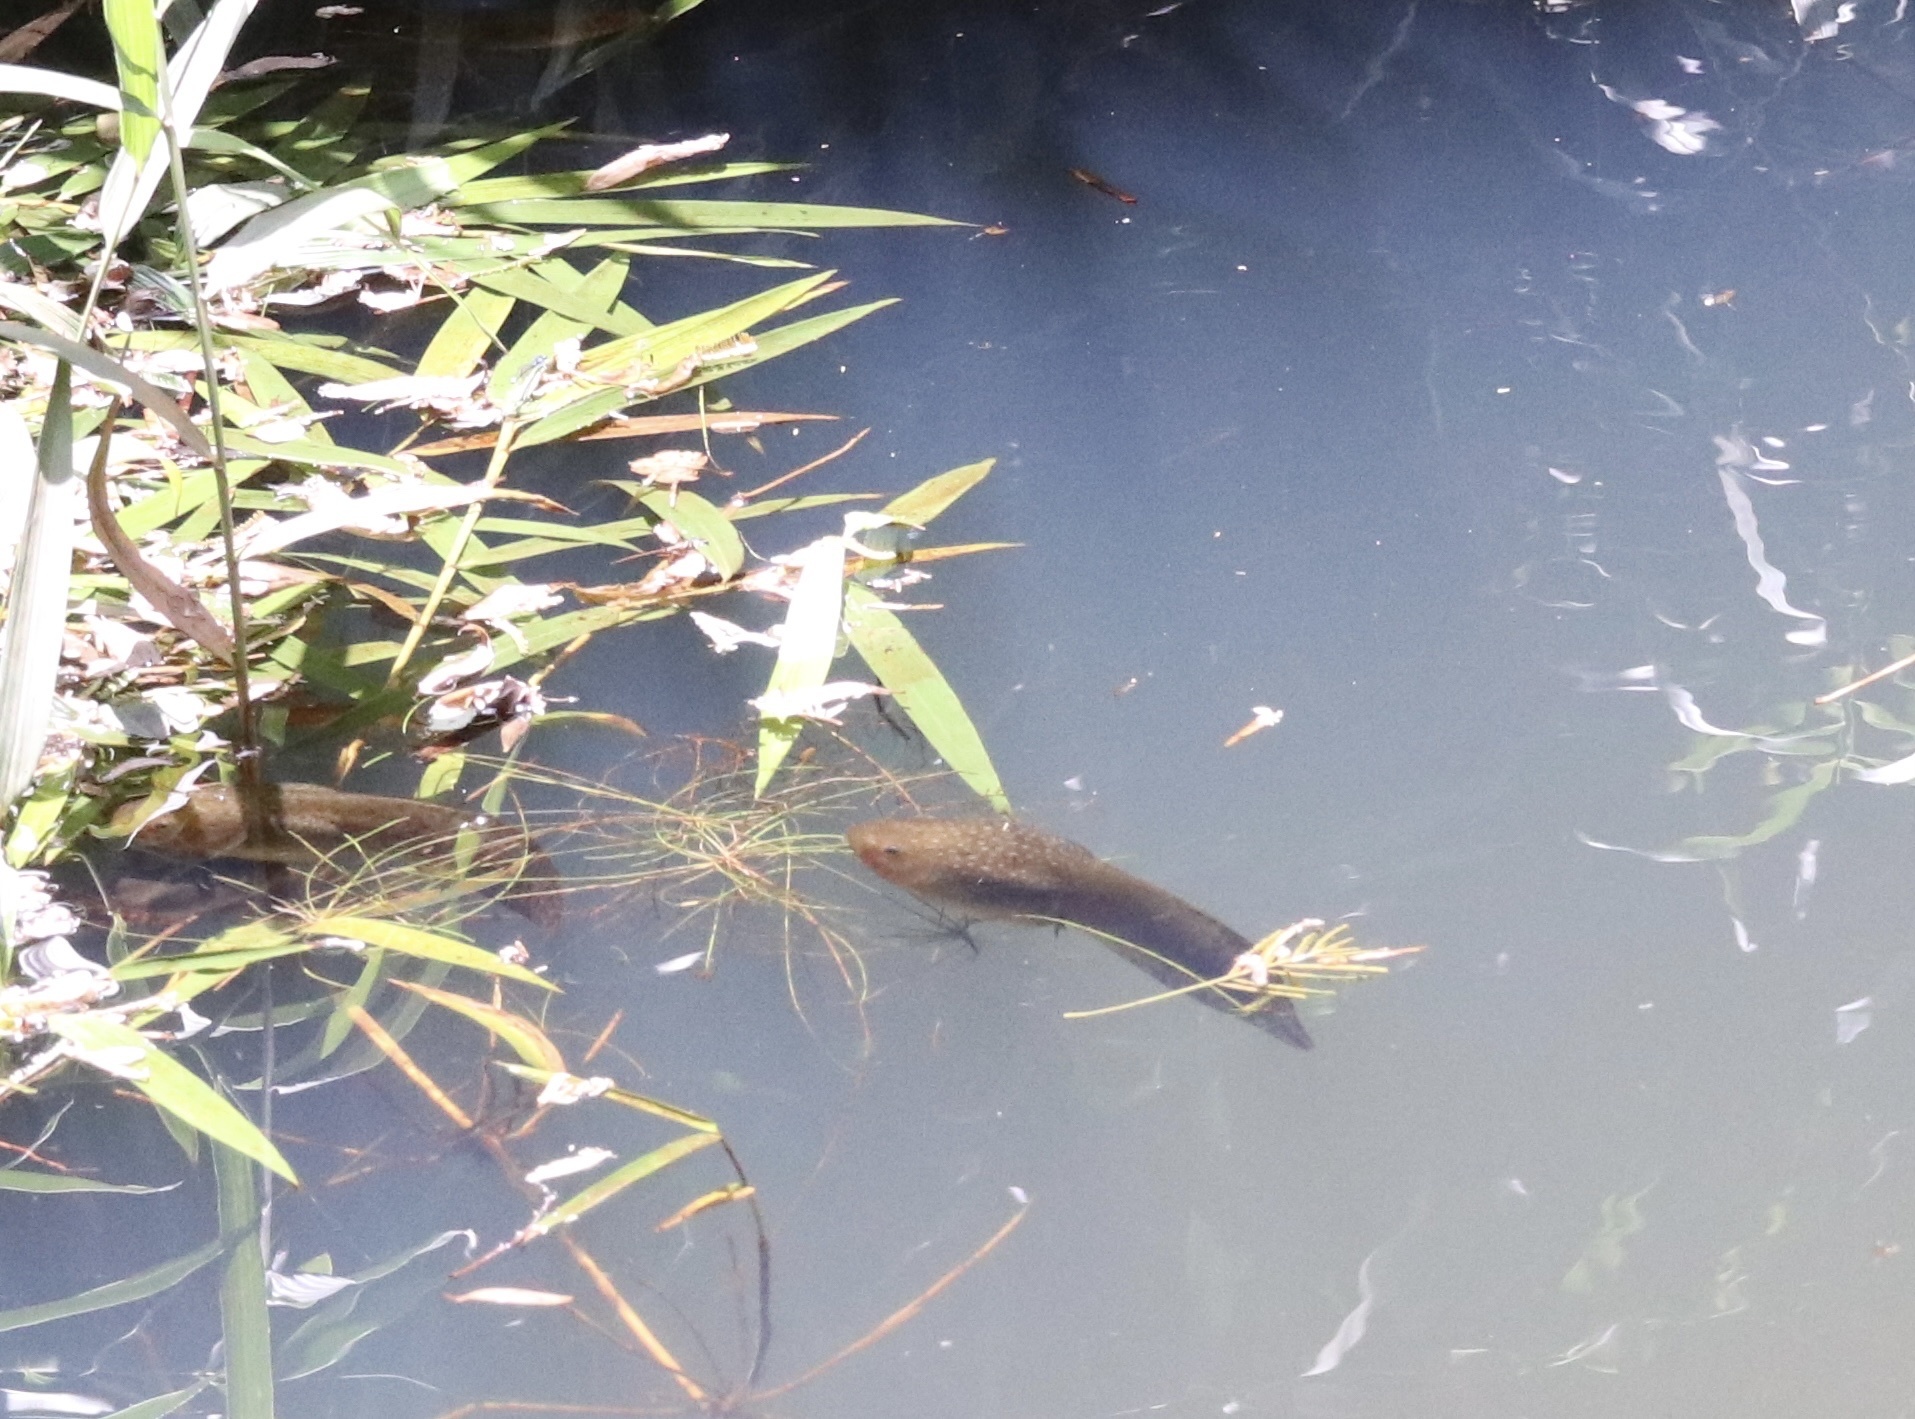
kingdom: Animalia
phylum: Chordata
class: Amphibia
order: Anura
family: Calyptocephalellidae
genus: Calyptocephalella
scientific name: Calyptocephalella gayi
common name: Chilean toad
